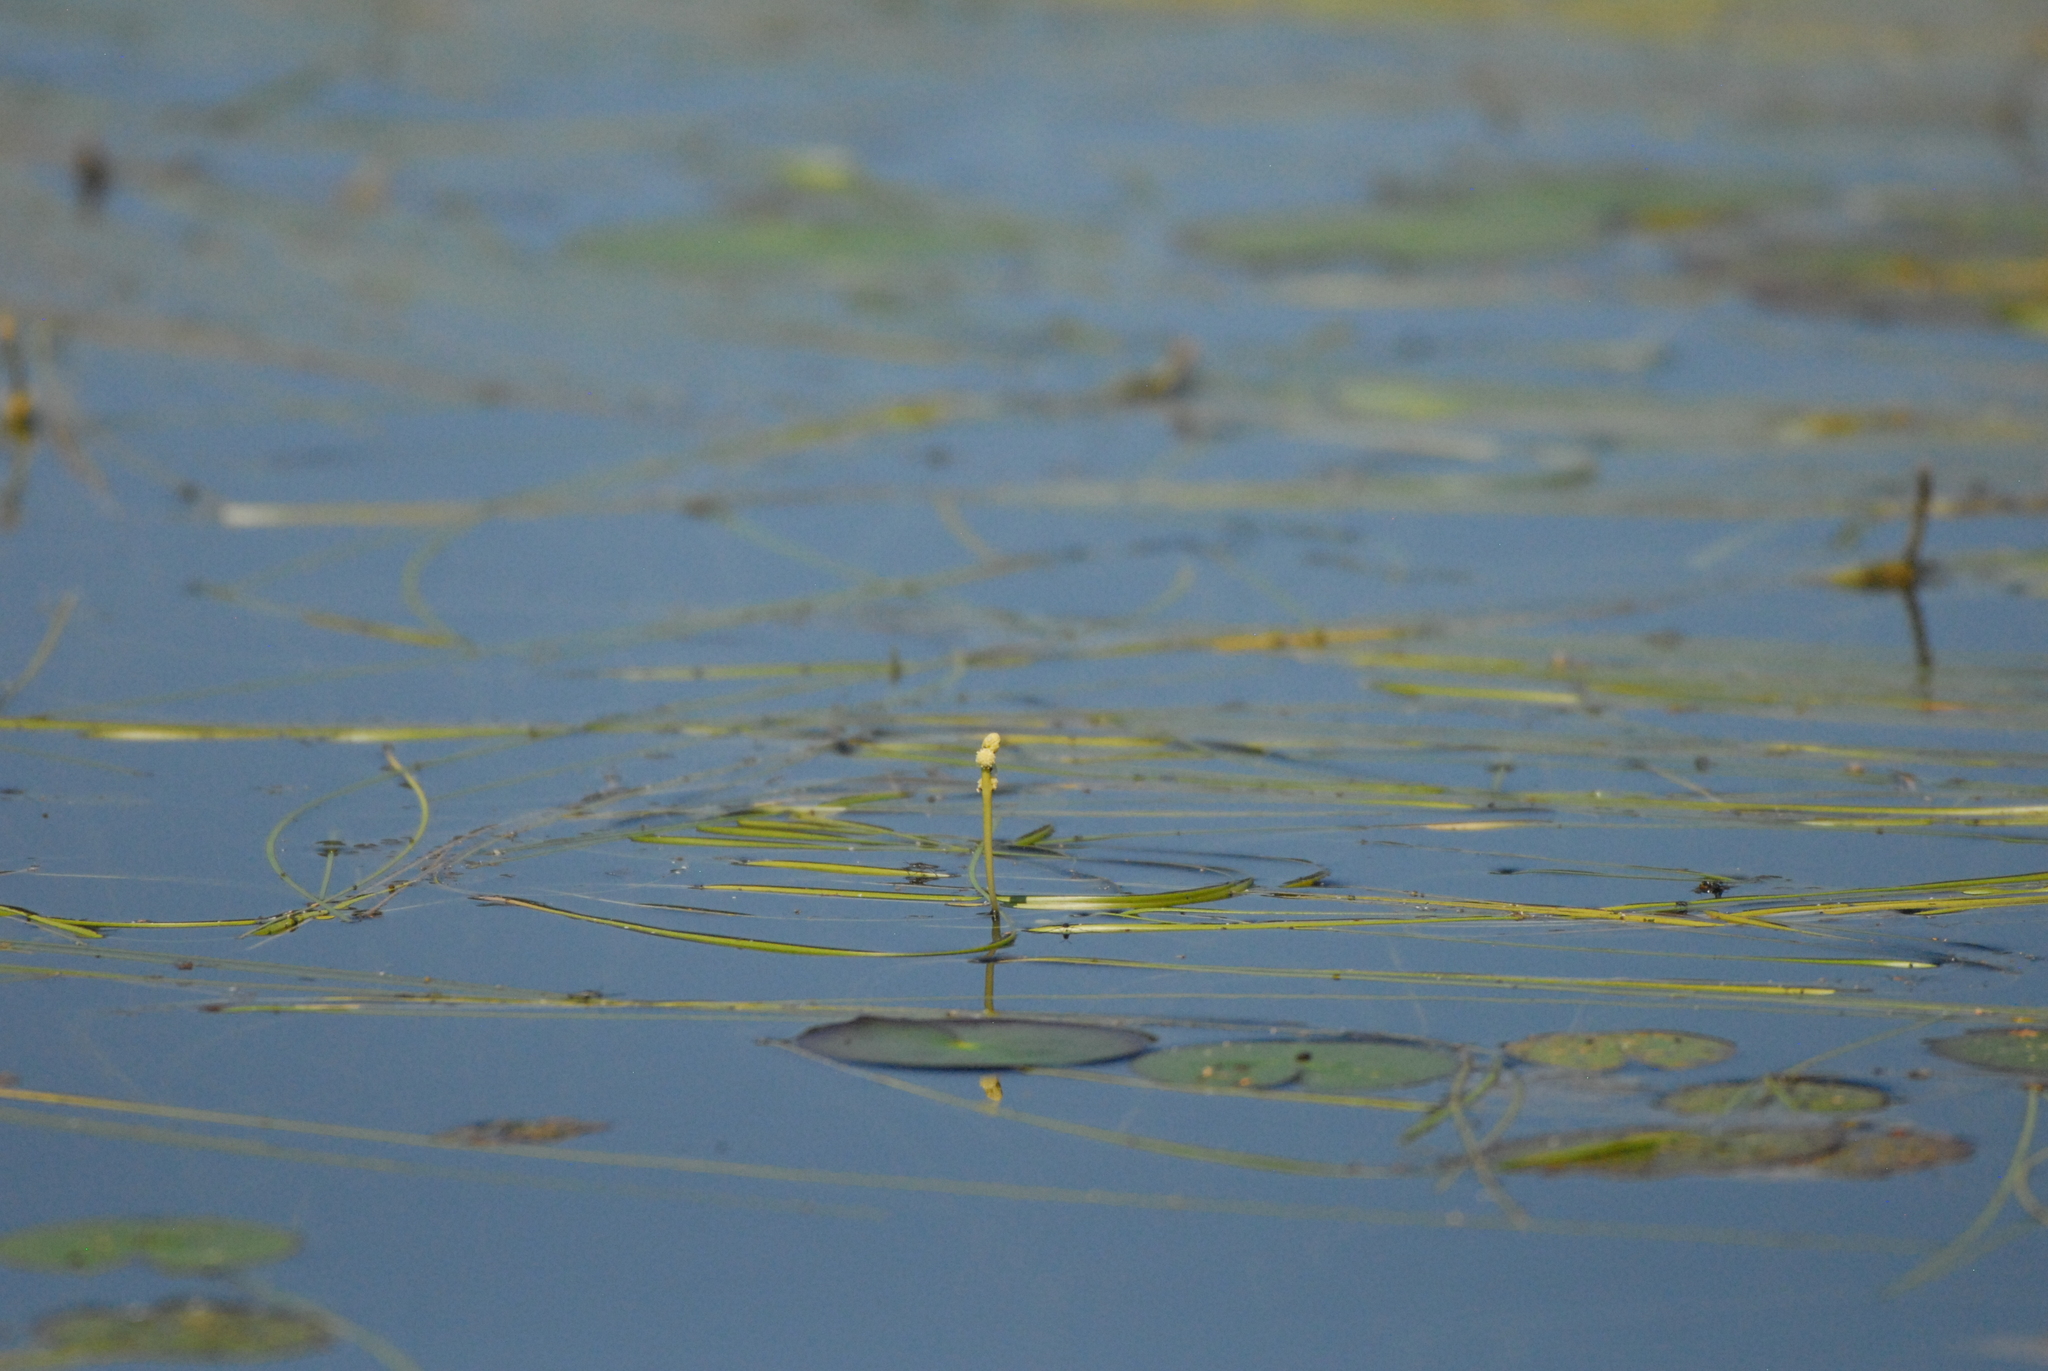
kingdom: Plantae
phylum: Tracheophyta
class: Liliopsida
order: Poales
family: Typhaceae
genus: Sparganium
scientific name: Sparganium gramineum
